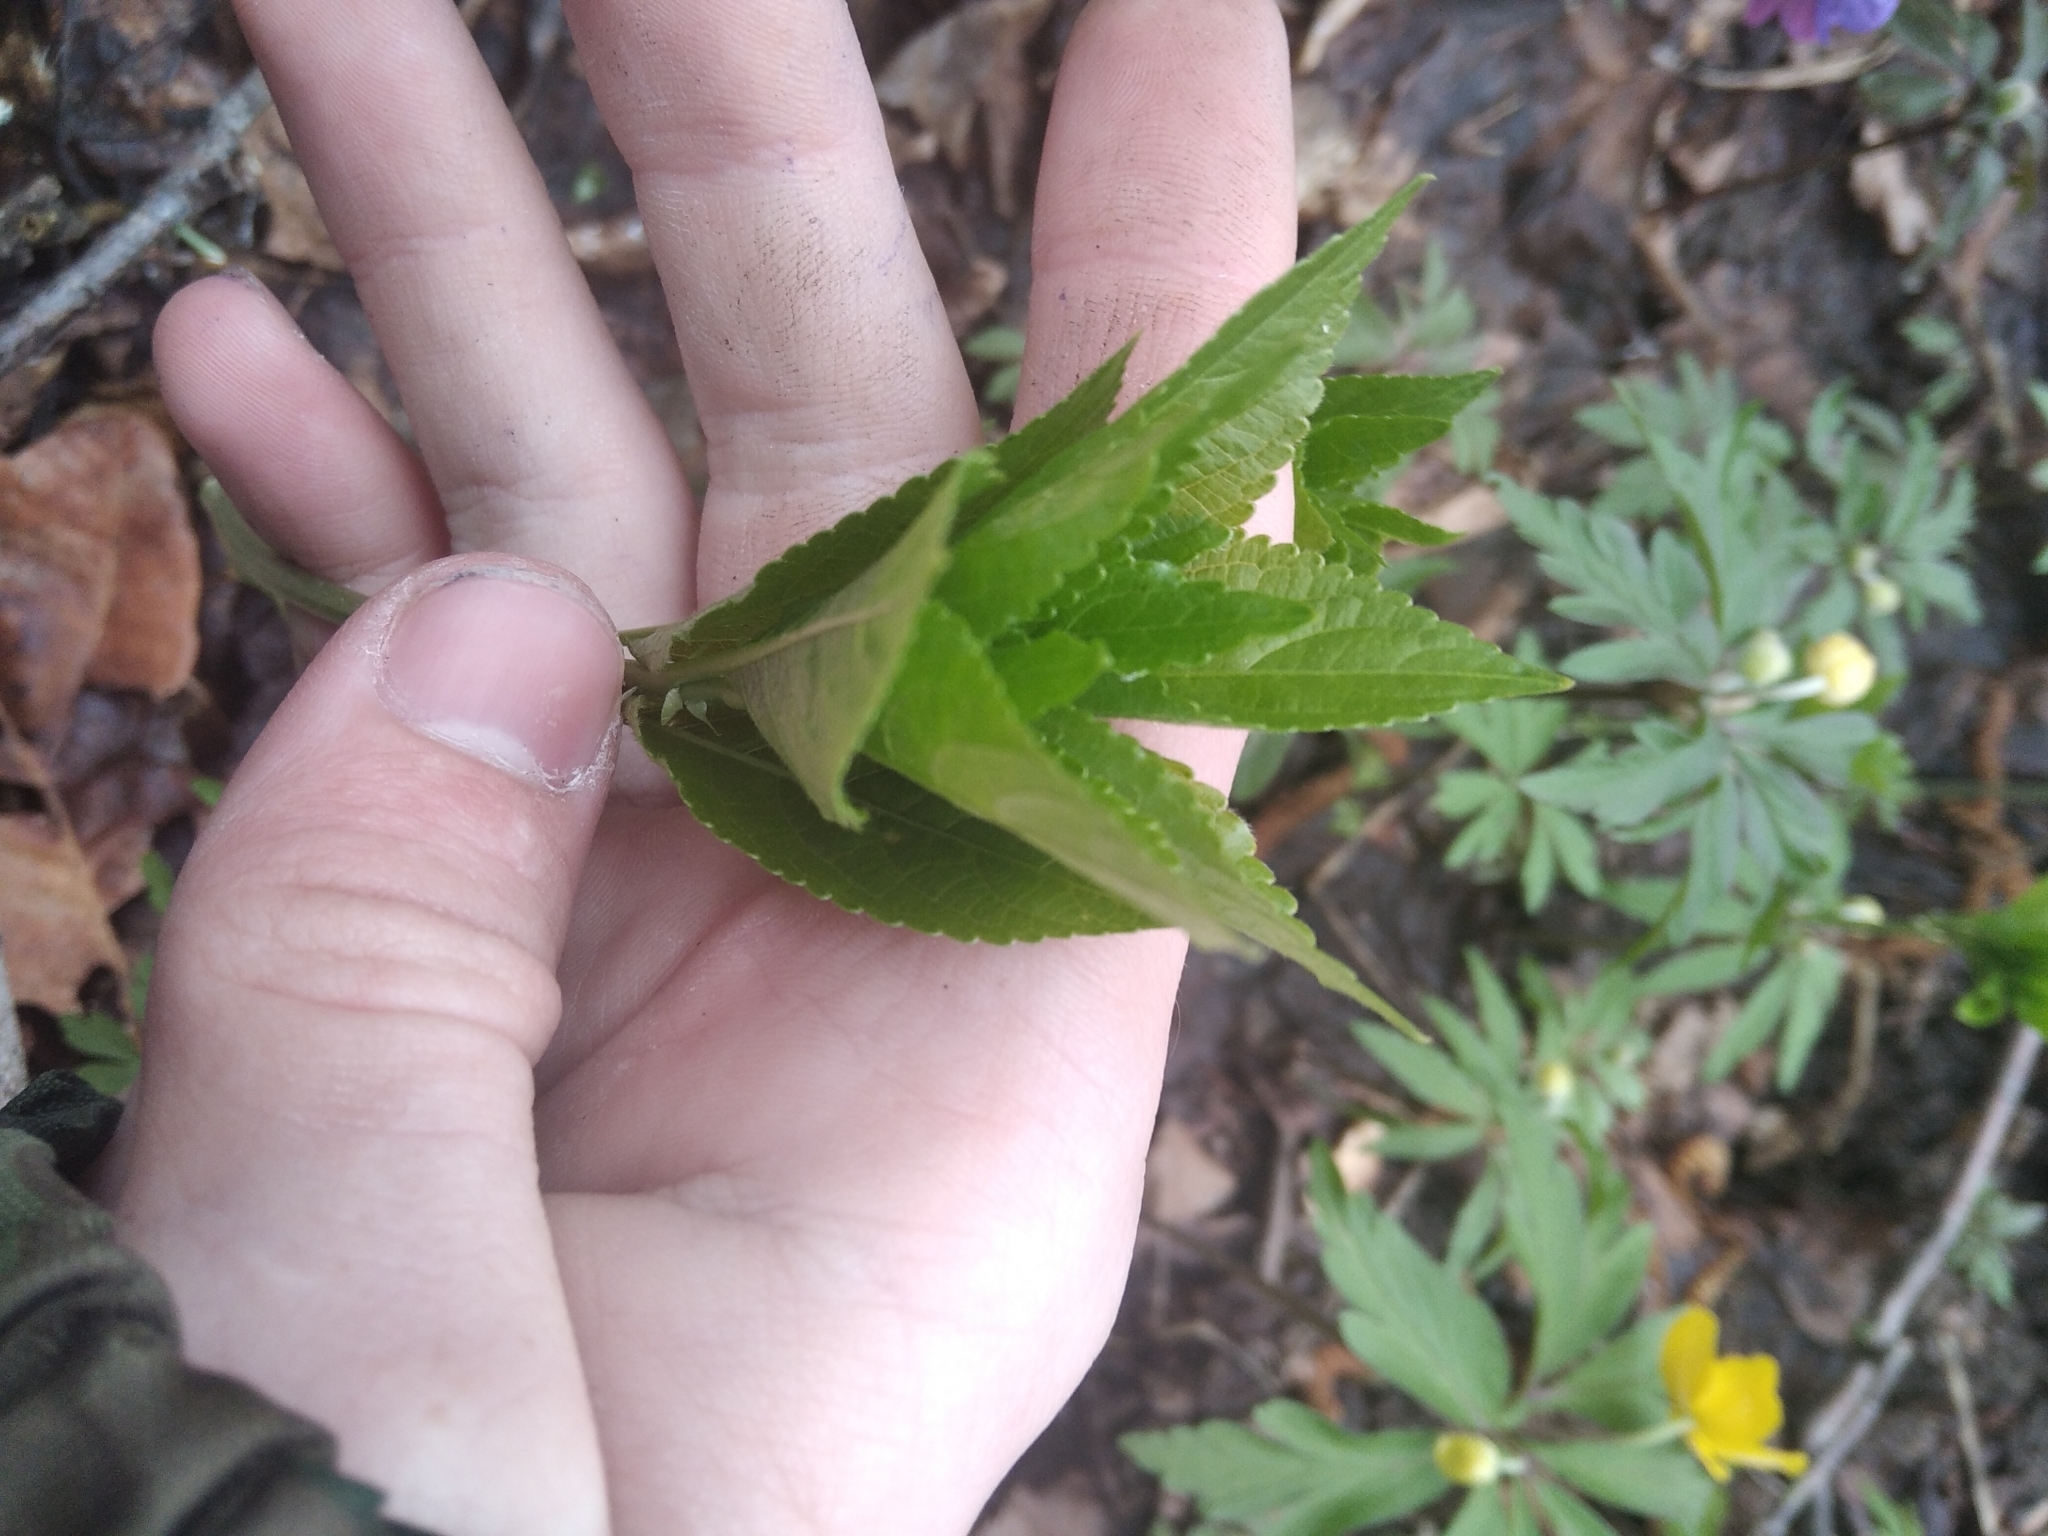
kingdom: Plantae
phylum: Tracheophyta
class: Magnoliopsida
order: Malpighiales
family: Euphorbiaceae
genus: Mercurialis
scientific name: Mercurialis perennis
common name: Dog mercury
